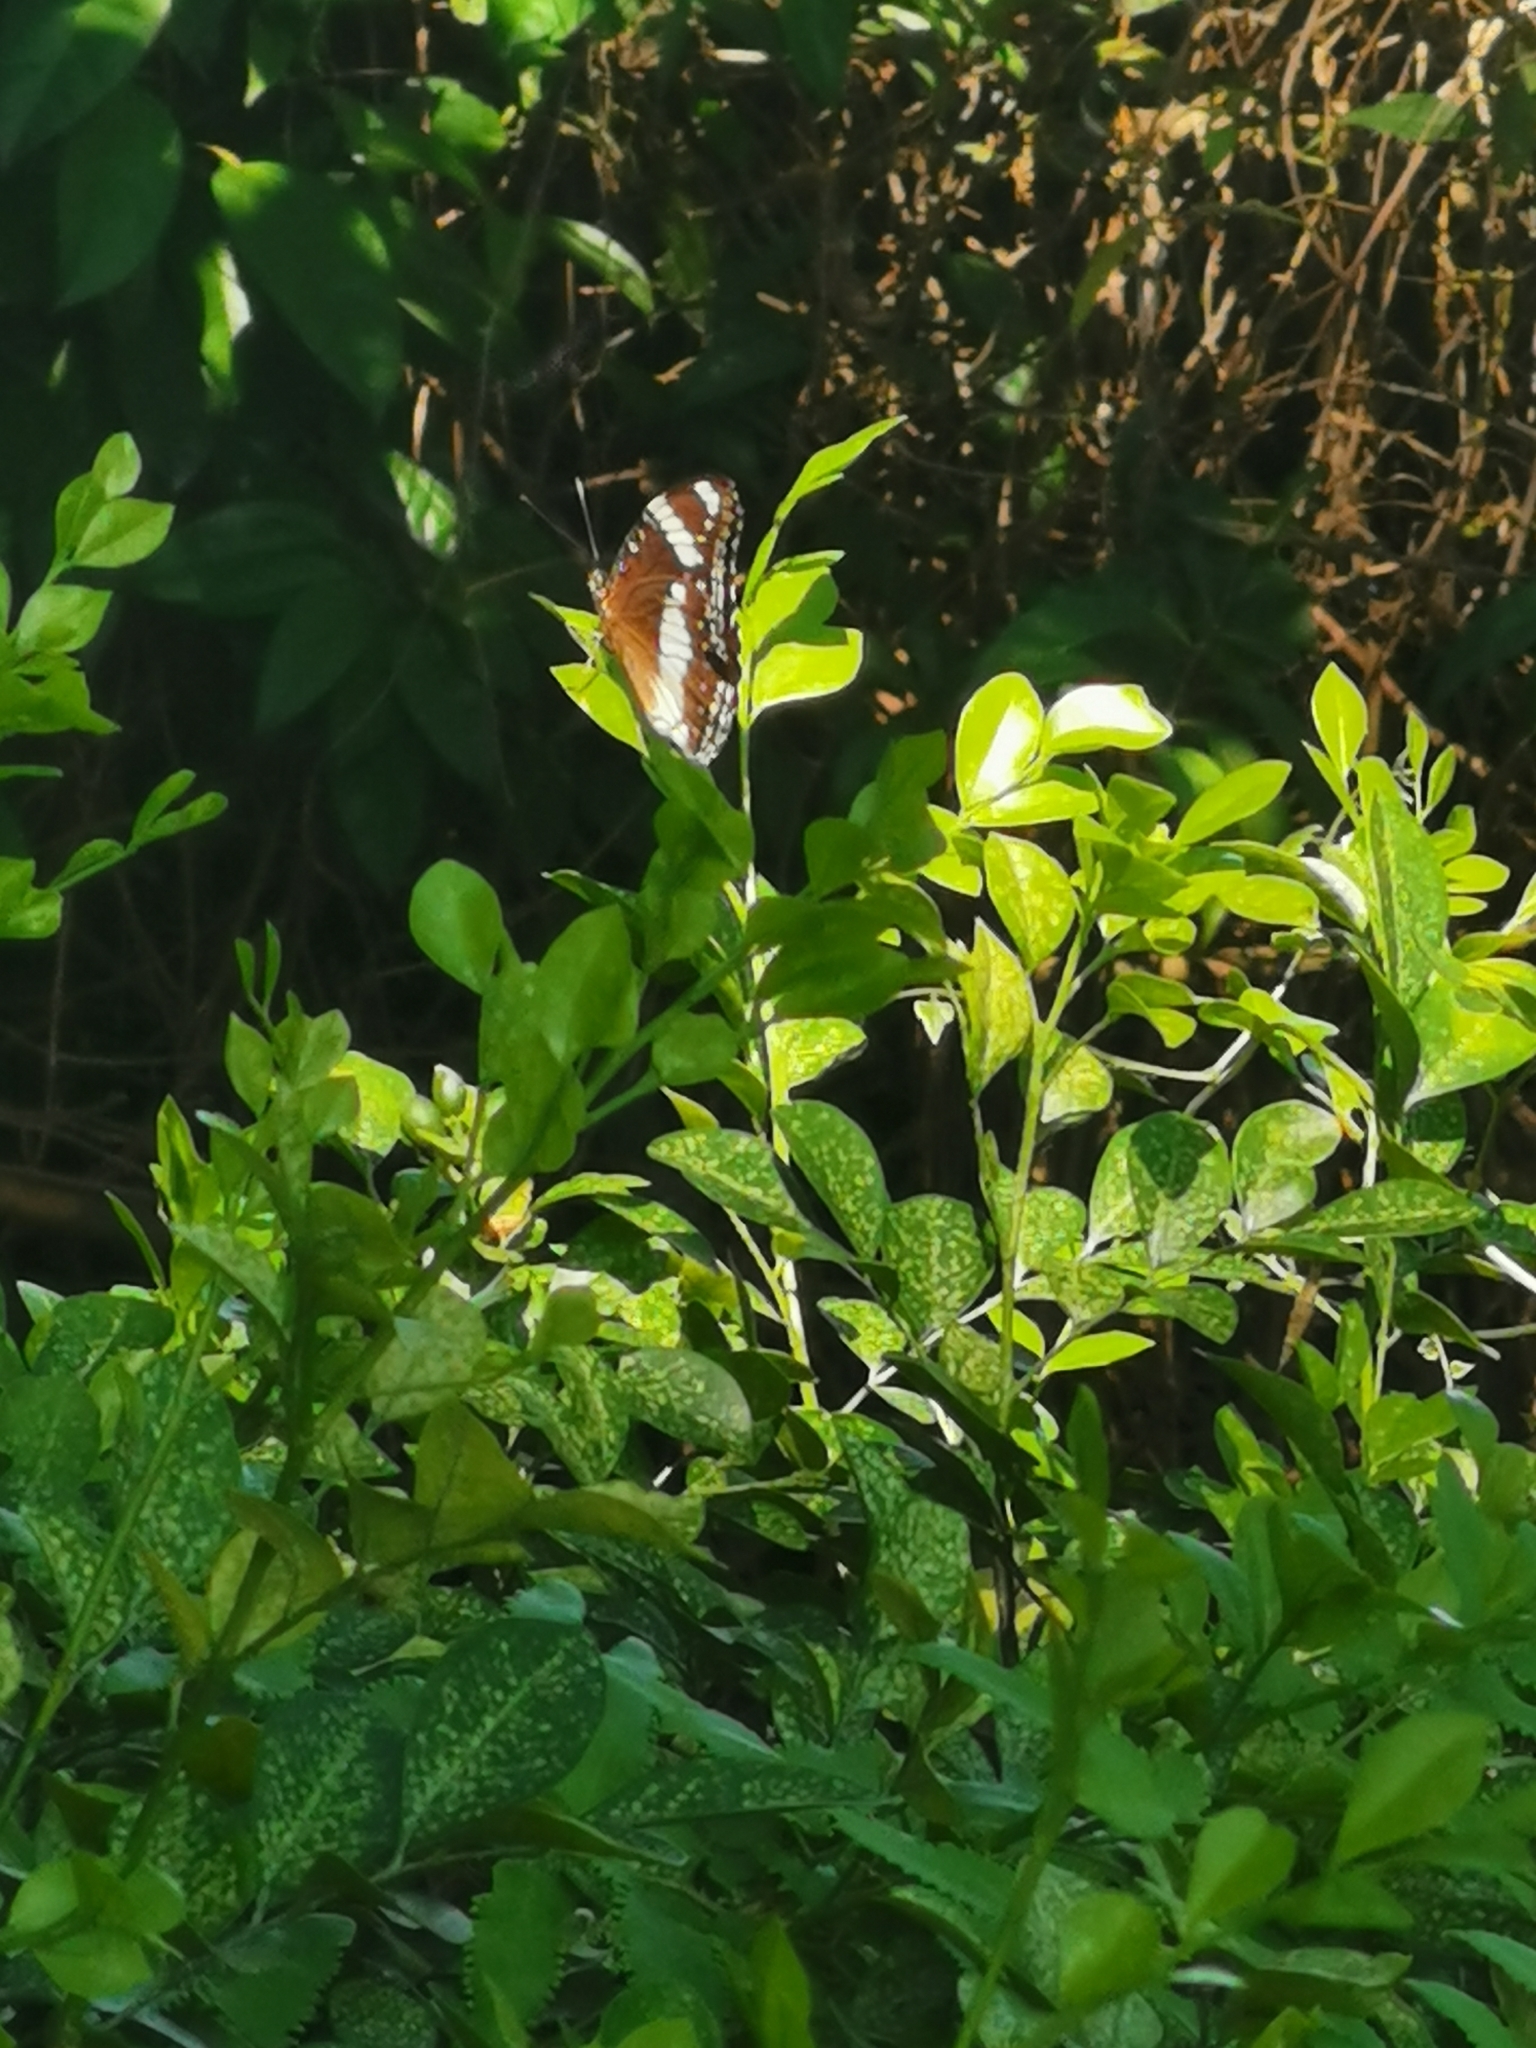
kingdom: Animalia
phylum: Arthropoda
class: Insecta
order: Lepidoptera
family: Nymphalidae
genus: Hypolimnas
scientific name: Hypolimnas bolina
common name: Great eggfly
